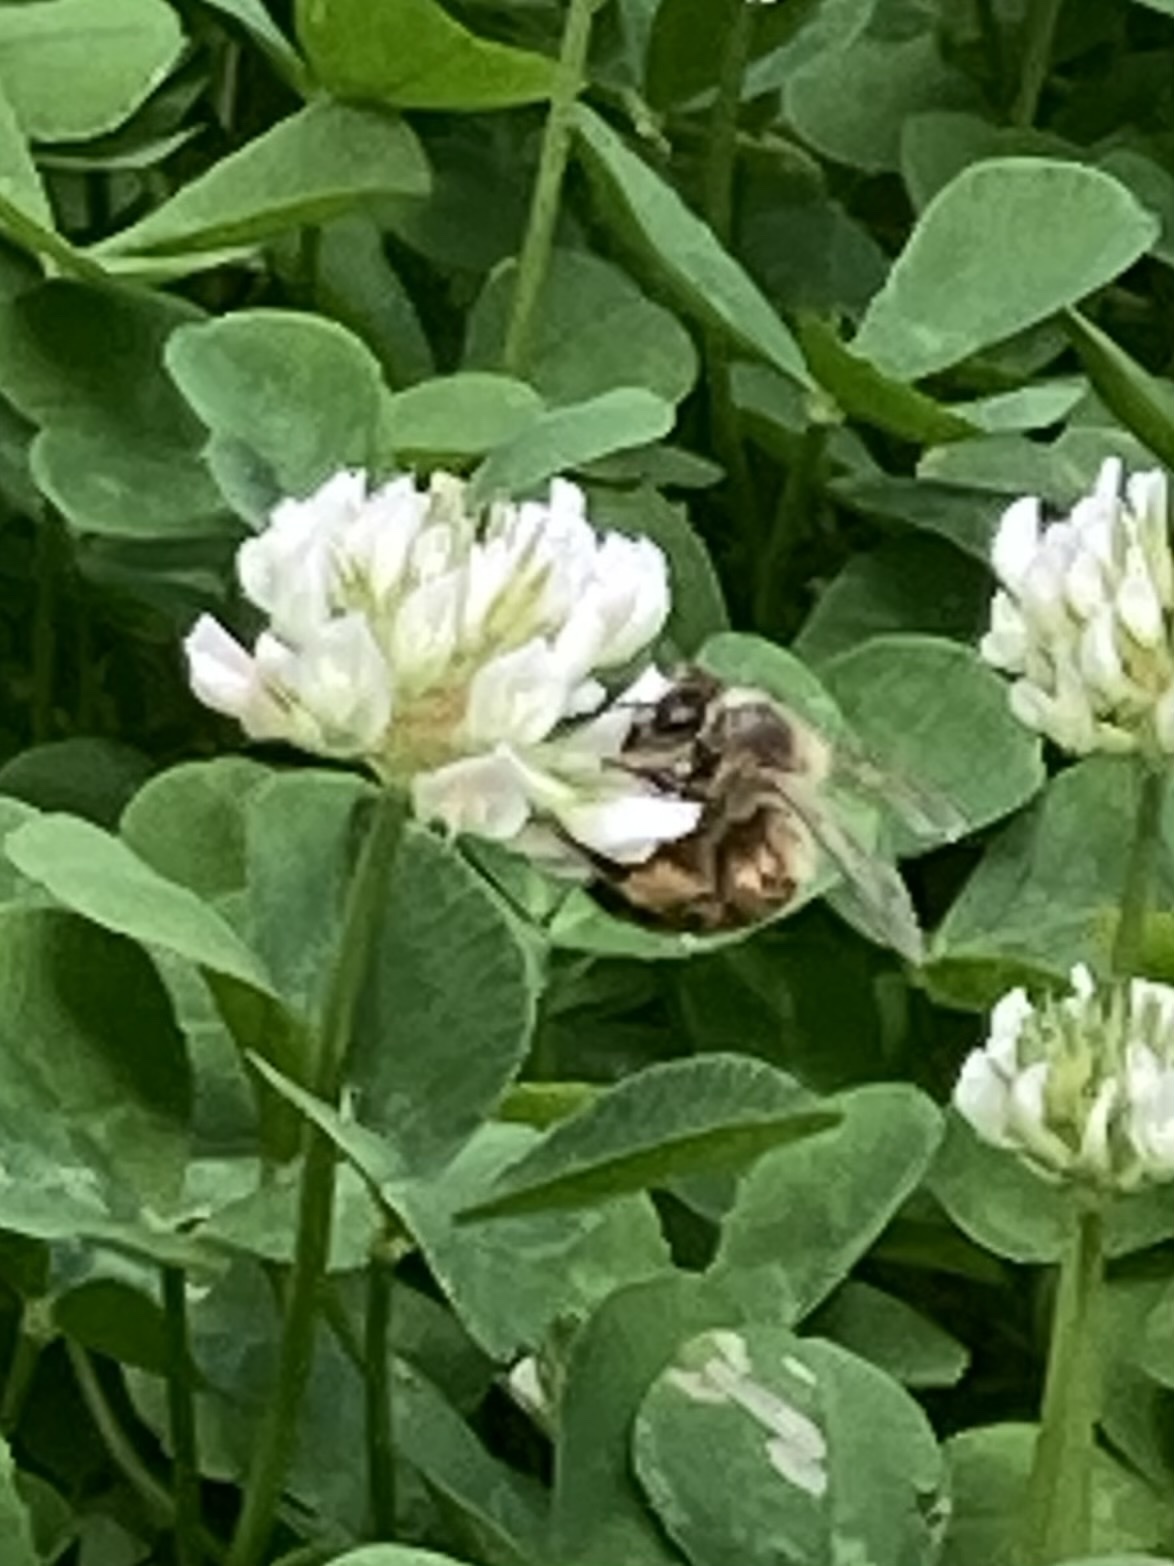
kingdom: Animalia
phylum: Arthropoda
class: Insecta
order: Hymenoptera
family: Apidae
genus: Apis
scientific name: Apis mellifera
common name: Honey bee
